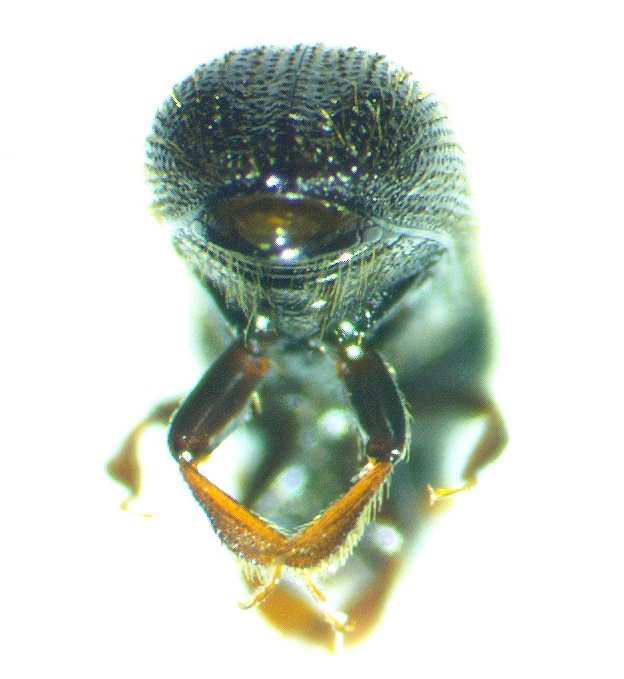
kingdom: Animalia
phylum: Arthropoda
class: Insecta
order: Coleoptera
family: Curculionidae
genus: Xyleborus
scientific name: Xyleborus atratus
